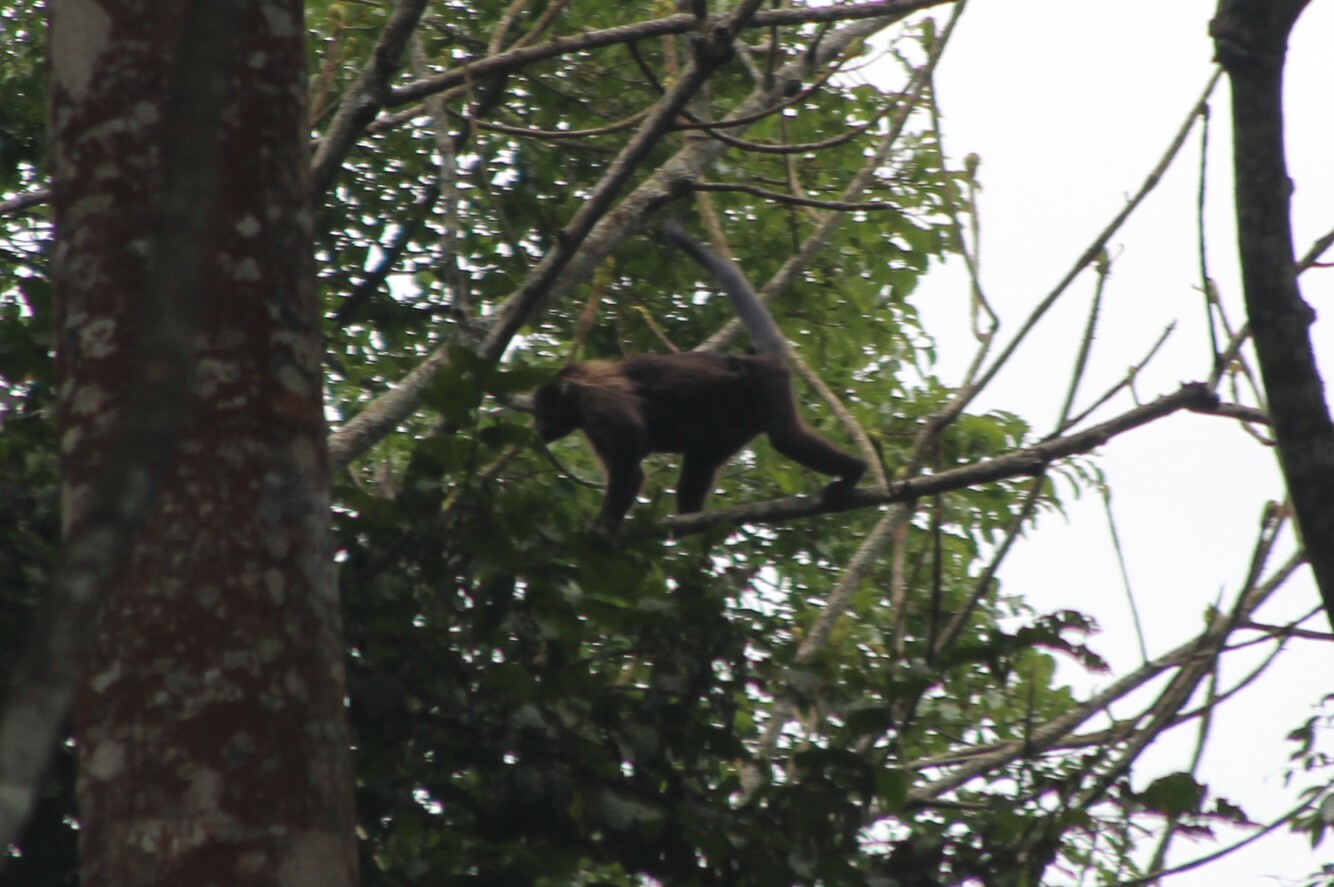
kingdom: Animalia
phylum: Chordata
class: Mammalia
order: Primates
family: Cercopithecidae
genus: Lophocebus
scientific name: Lophocebus albigena
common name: Gray-cheeked mangabey
